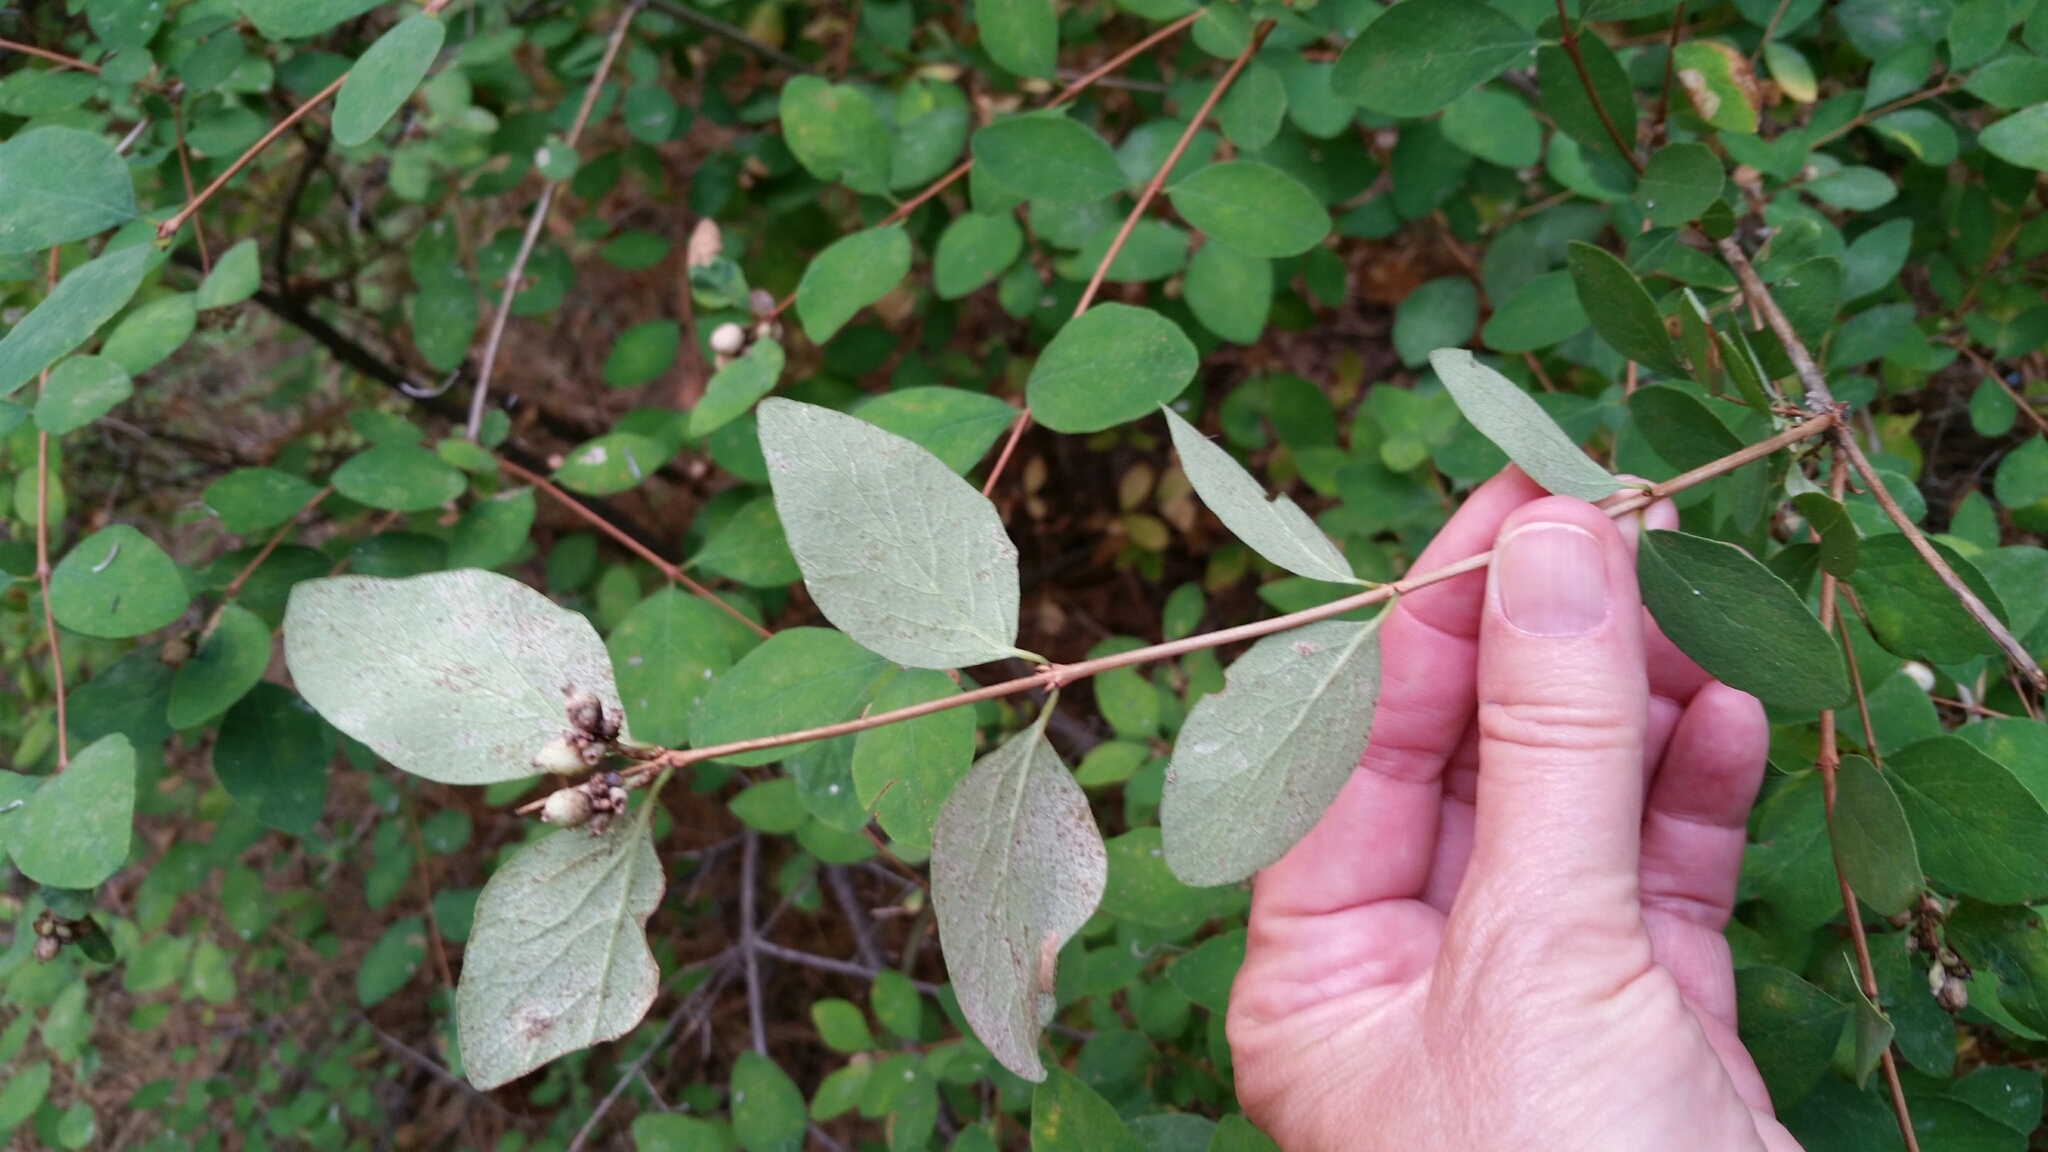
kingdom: Plantae
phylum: Tracheophyta
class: Magnoliopsida
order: Dipsacales
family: Caprifoliaceae
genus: Symphoricarpos
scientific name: Symphoricarpos albus
